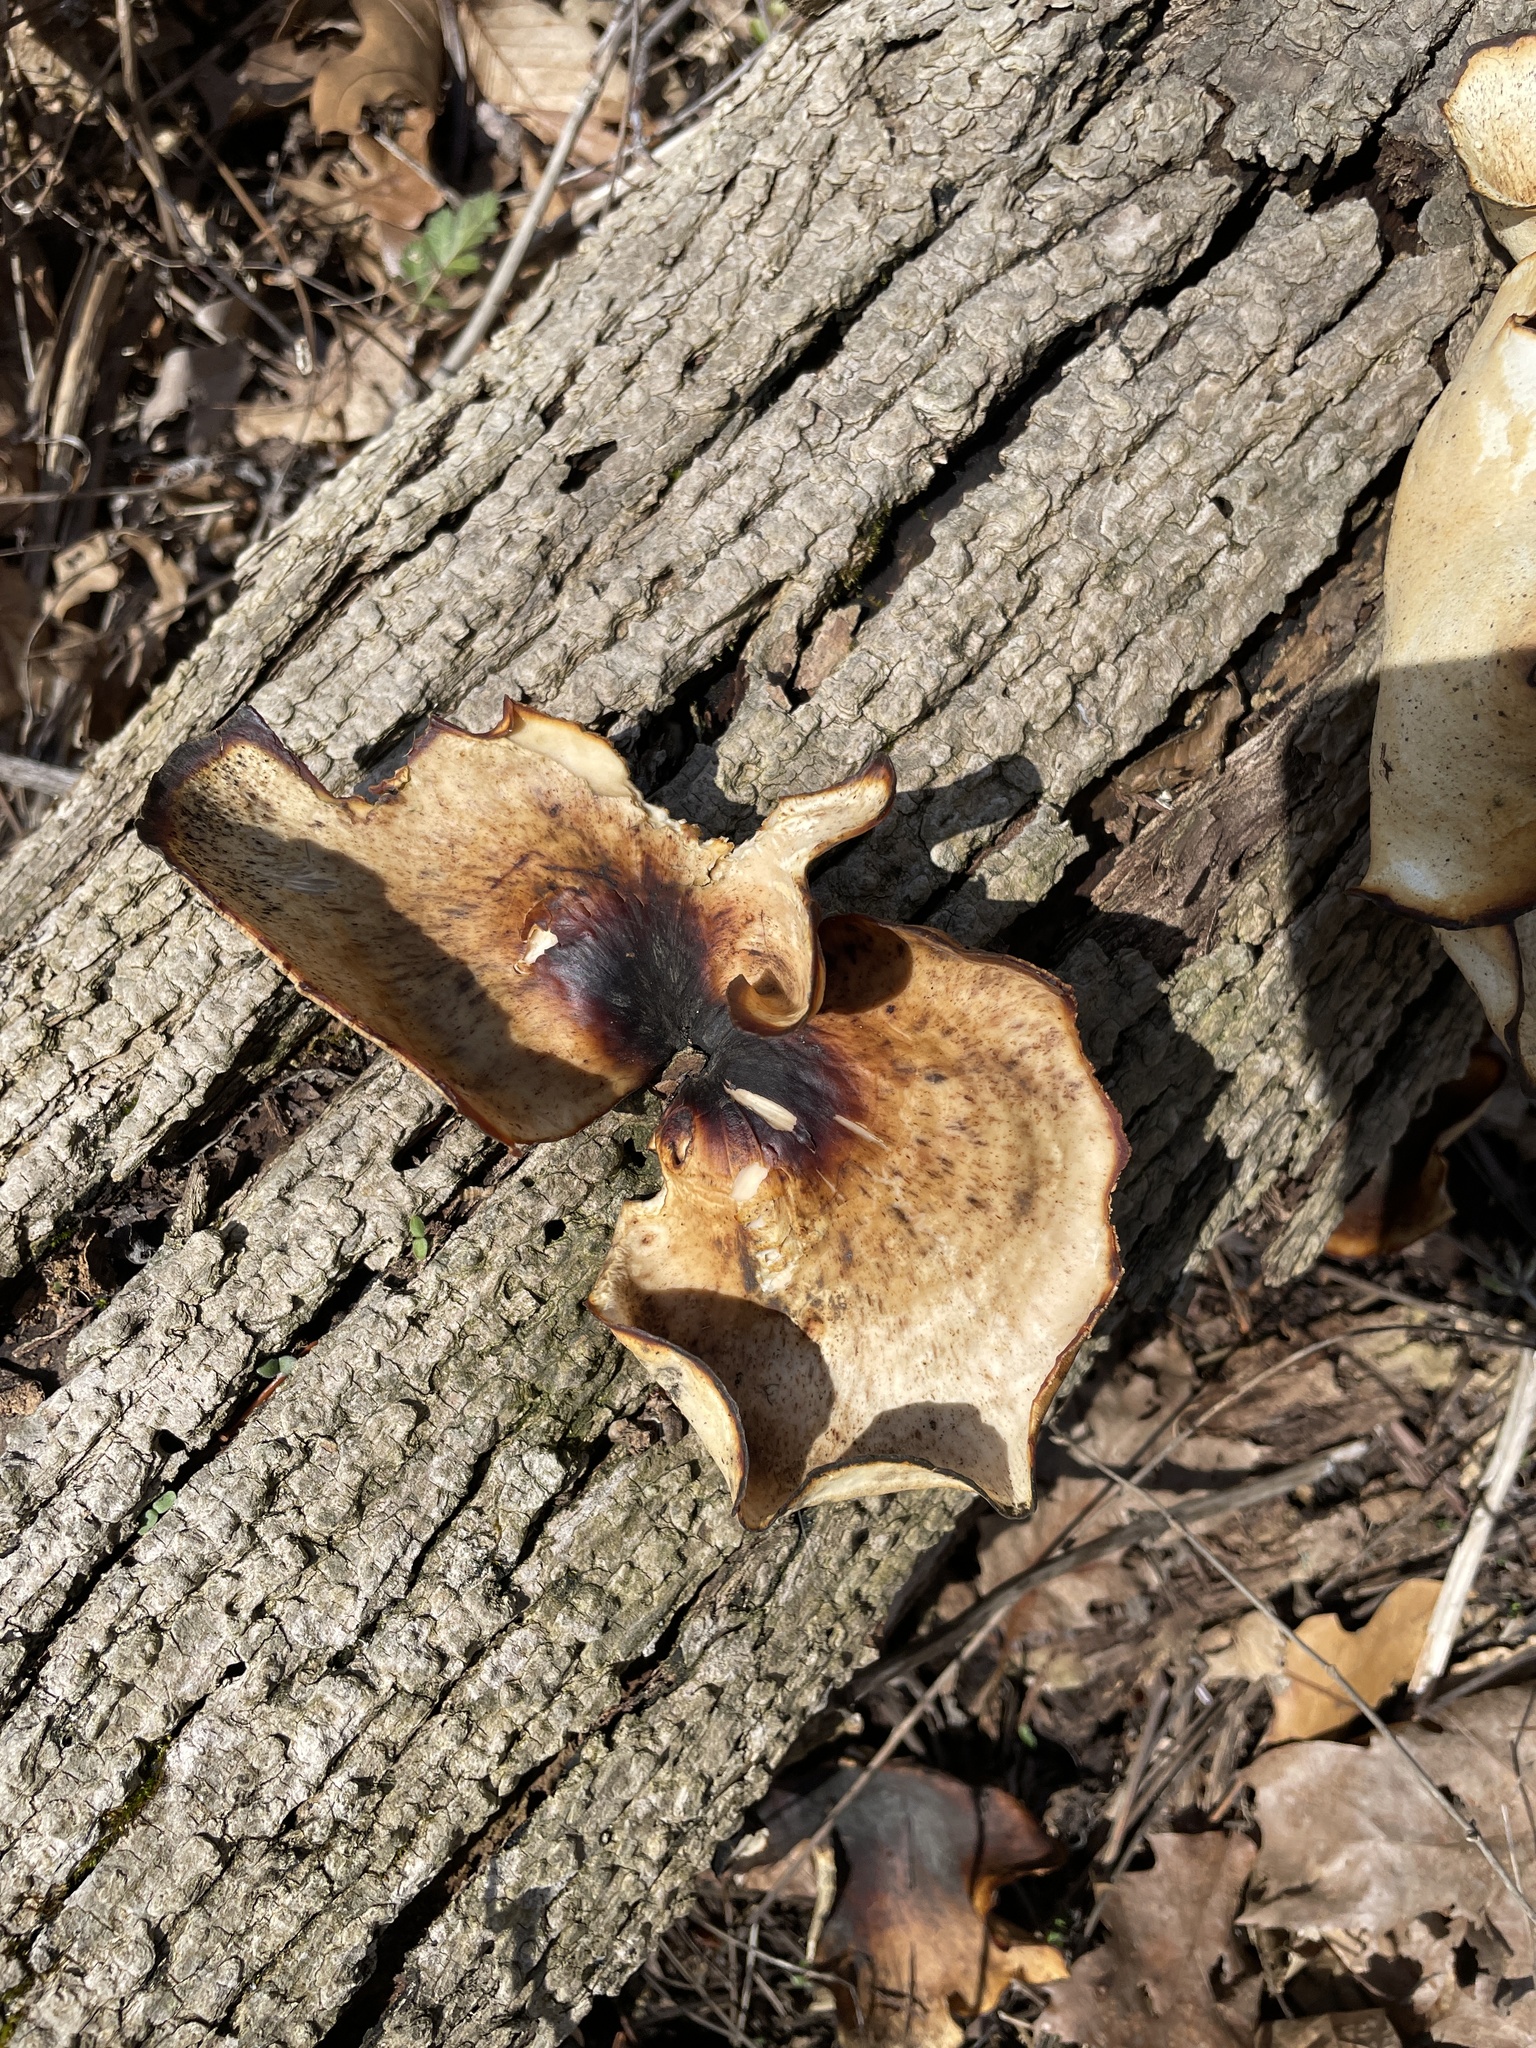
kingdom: Fungi
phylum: Basidiomycota
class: Agaricomycetes
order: Polyporales
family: Polyporaceae
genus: Picipes
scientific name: Picipes badius
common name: Bay polypore
